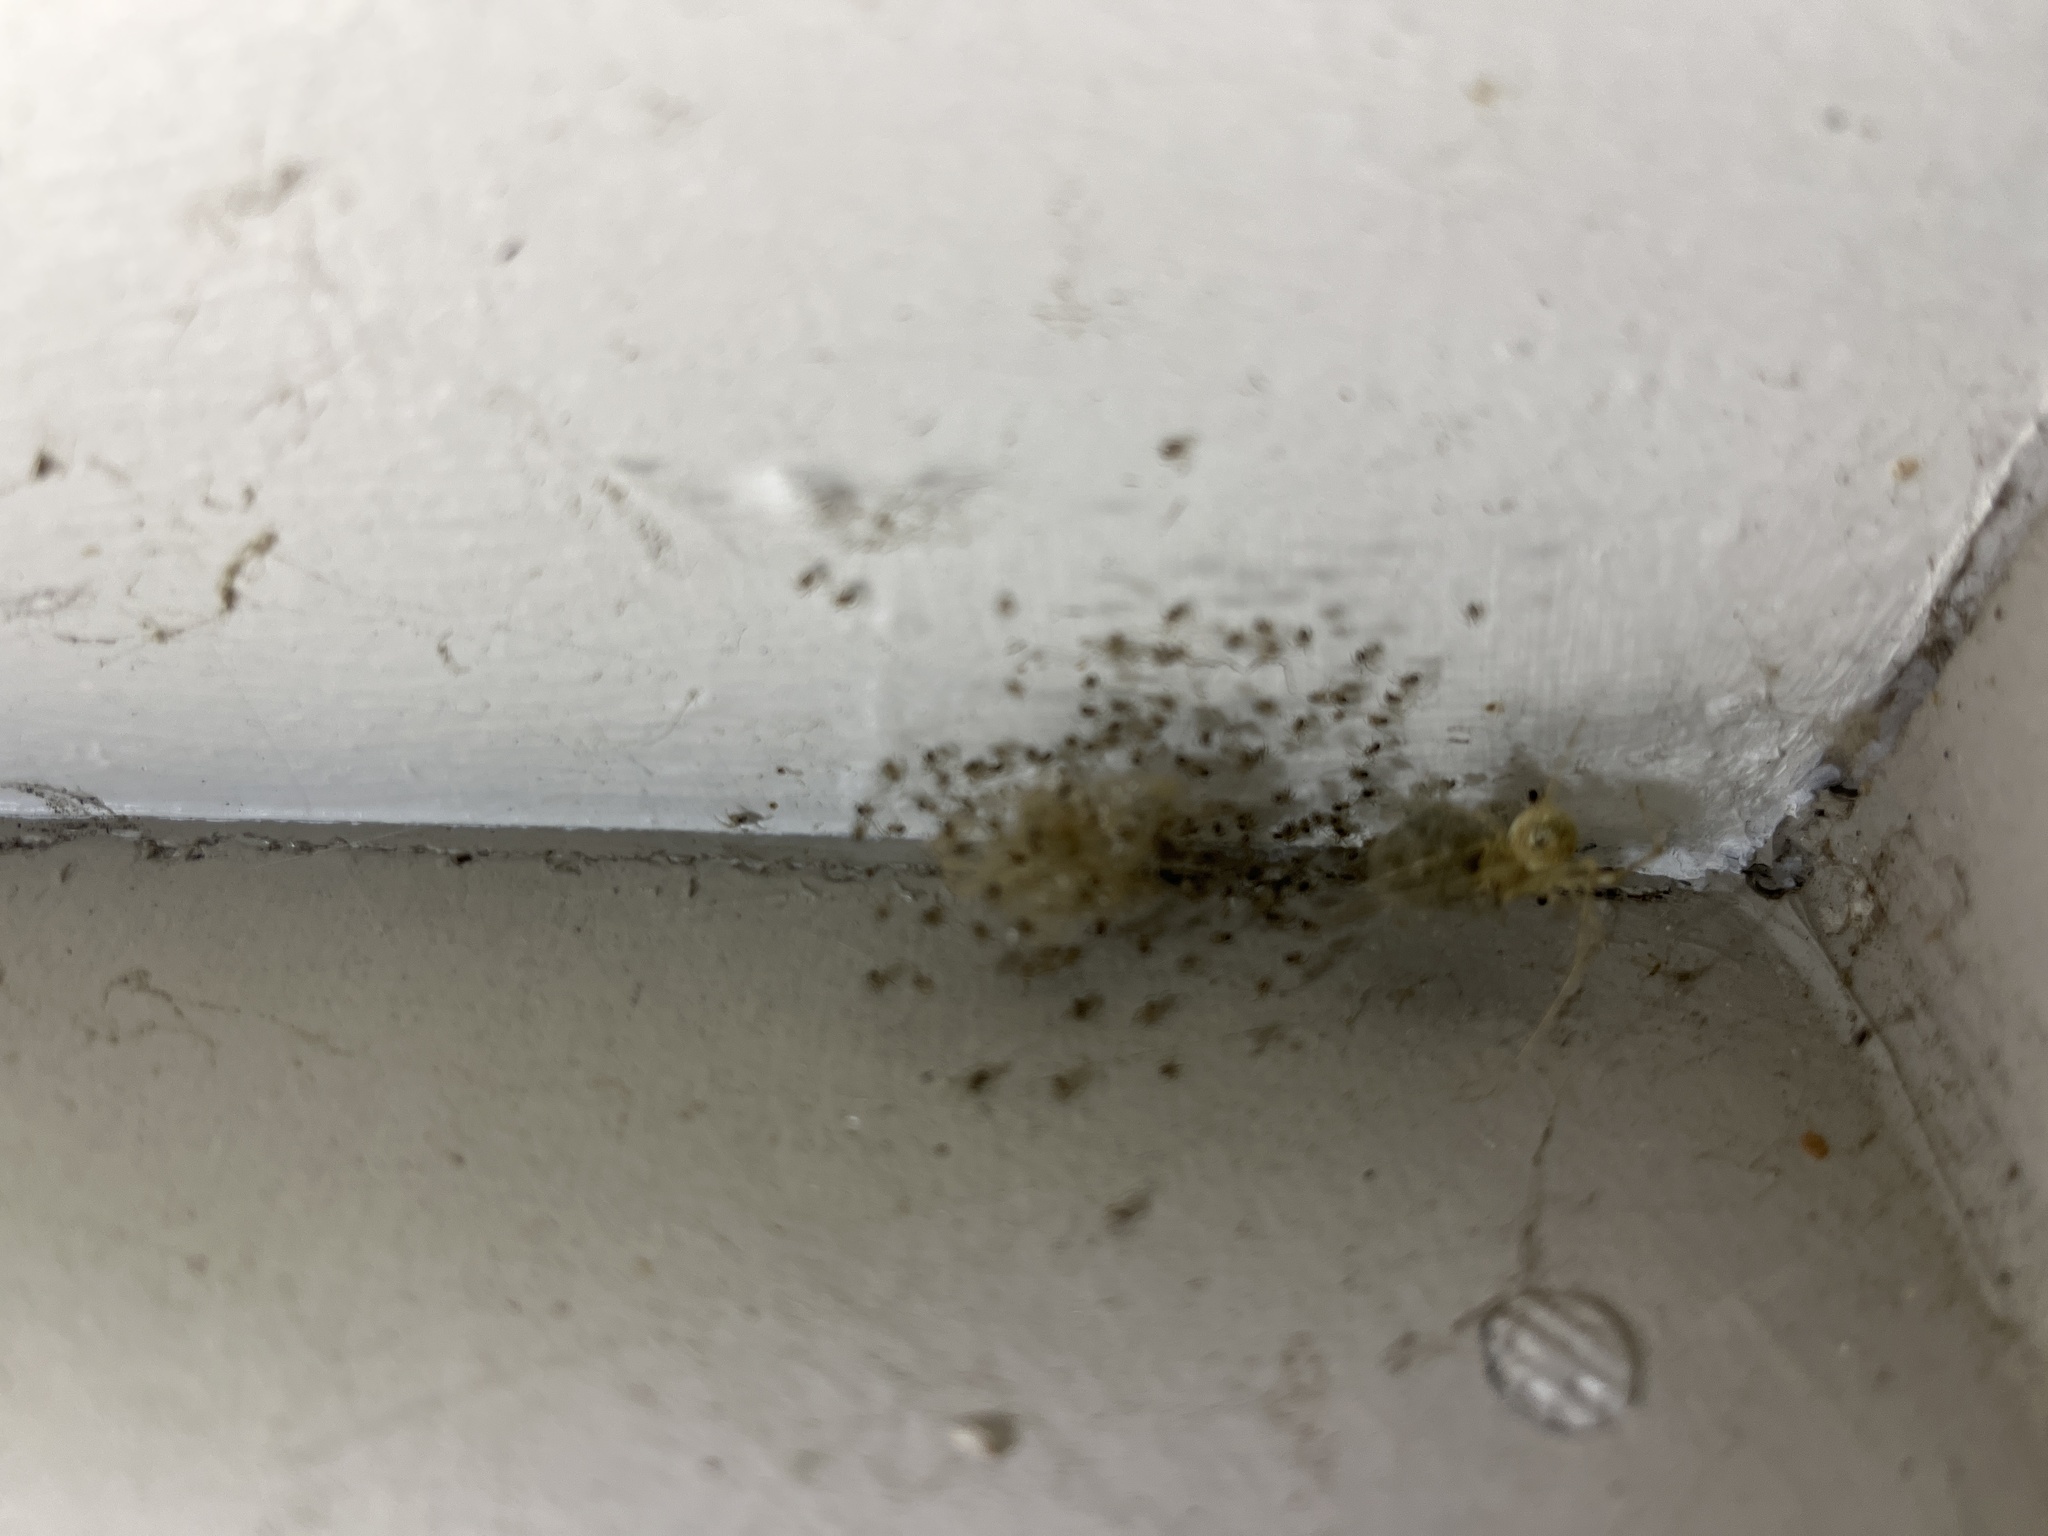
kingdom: Animalia
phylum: Arthropoda
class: Arachnida
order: Araneae
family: Theridiidae
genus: Cryptachaea
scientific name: Cryptachaea gigantipes
